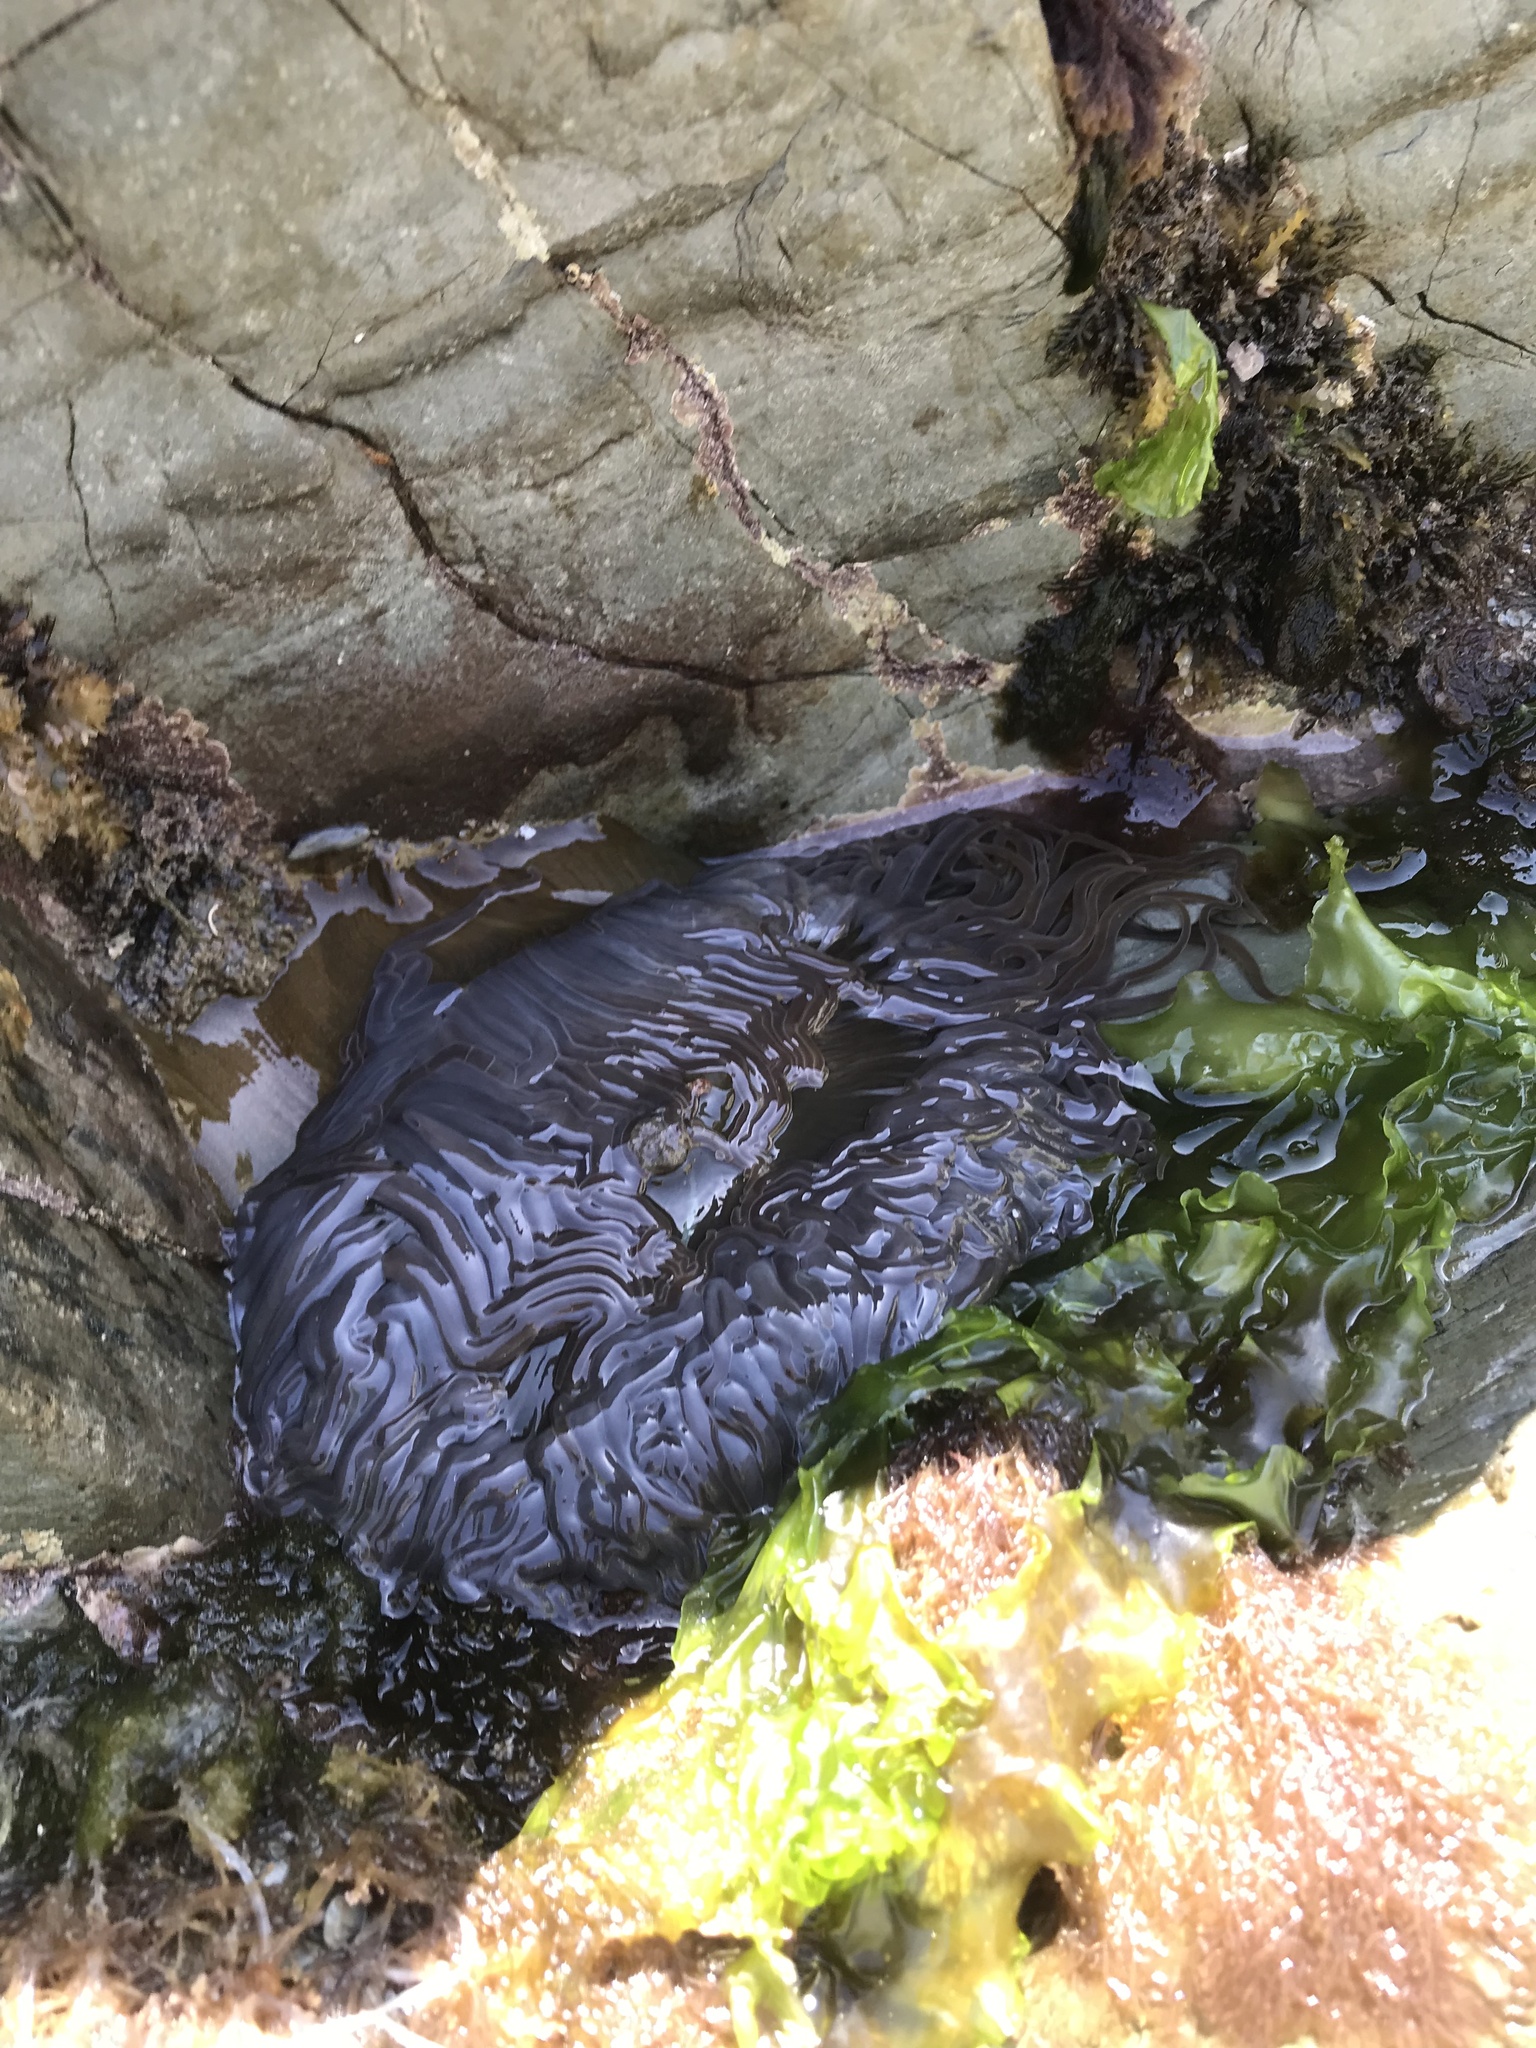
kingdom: Animalia
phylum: Cnidaria
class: Anthozoa
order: Actiniaria
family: Actiniidae
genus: Anemonia
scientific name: Anemonia viridis
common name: Snakelocks anemone
